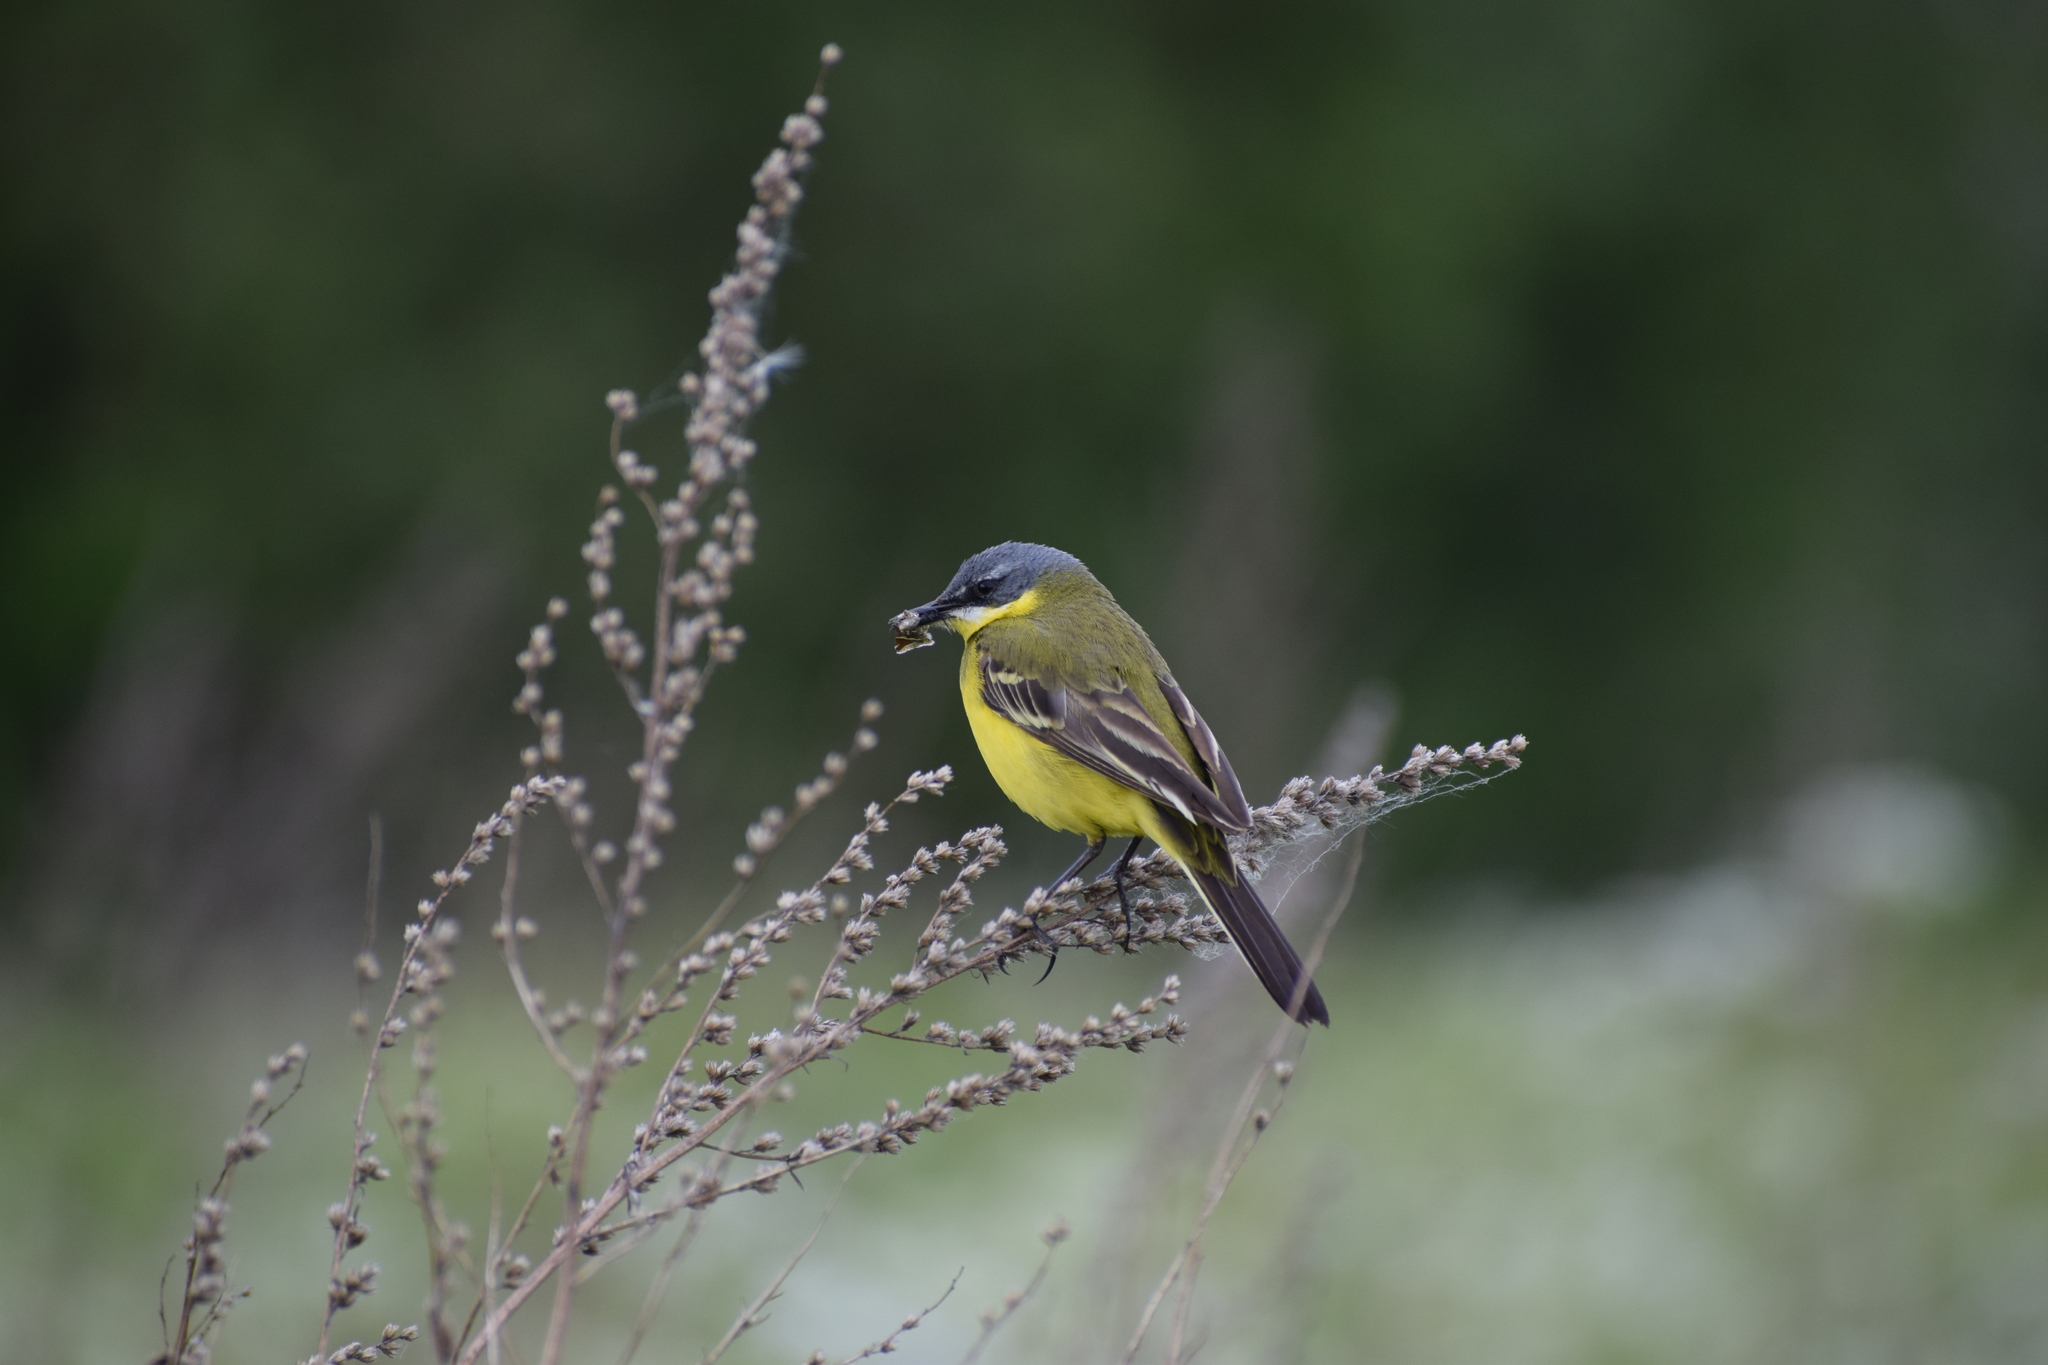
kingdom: Animalia
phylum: Chordata
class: Aves
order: Passeriformes
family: Motacillidae
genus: Motacilla
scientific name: Motacilla flava
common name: Western yellow wagtail
